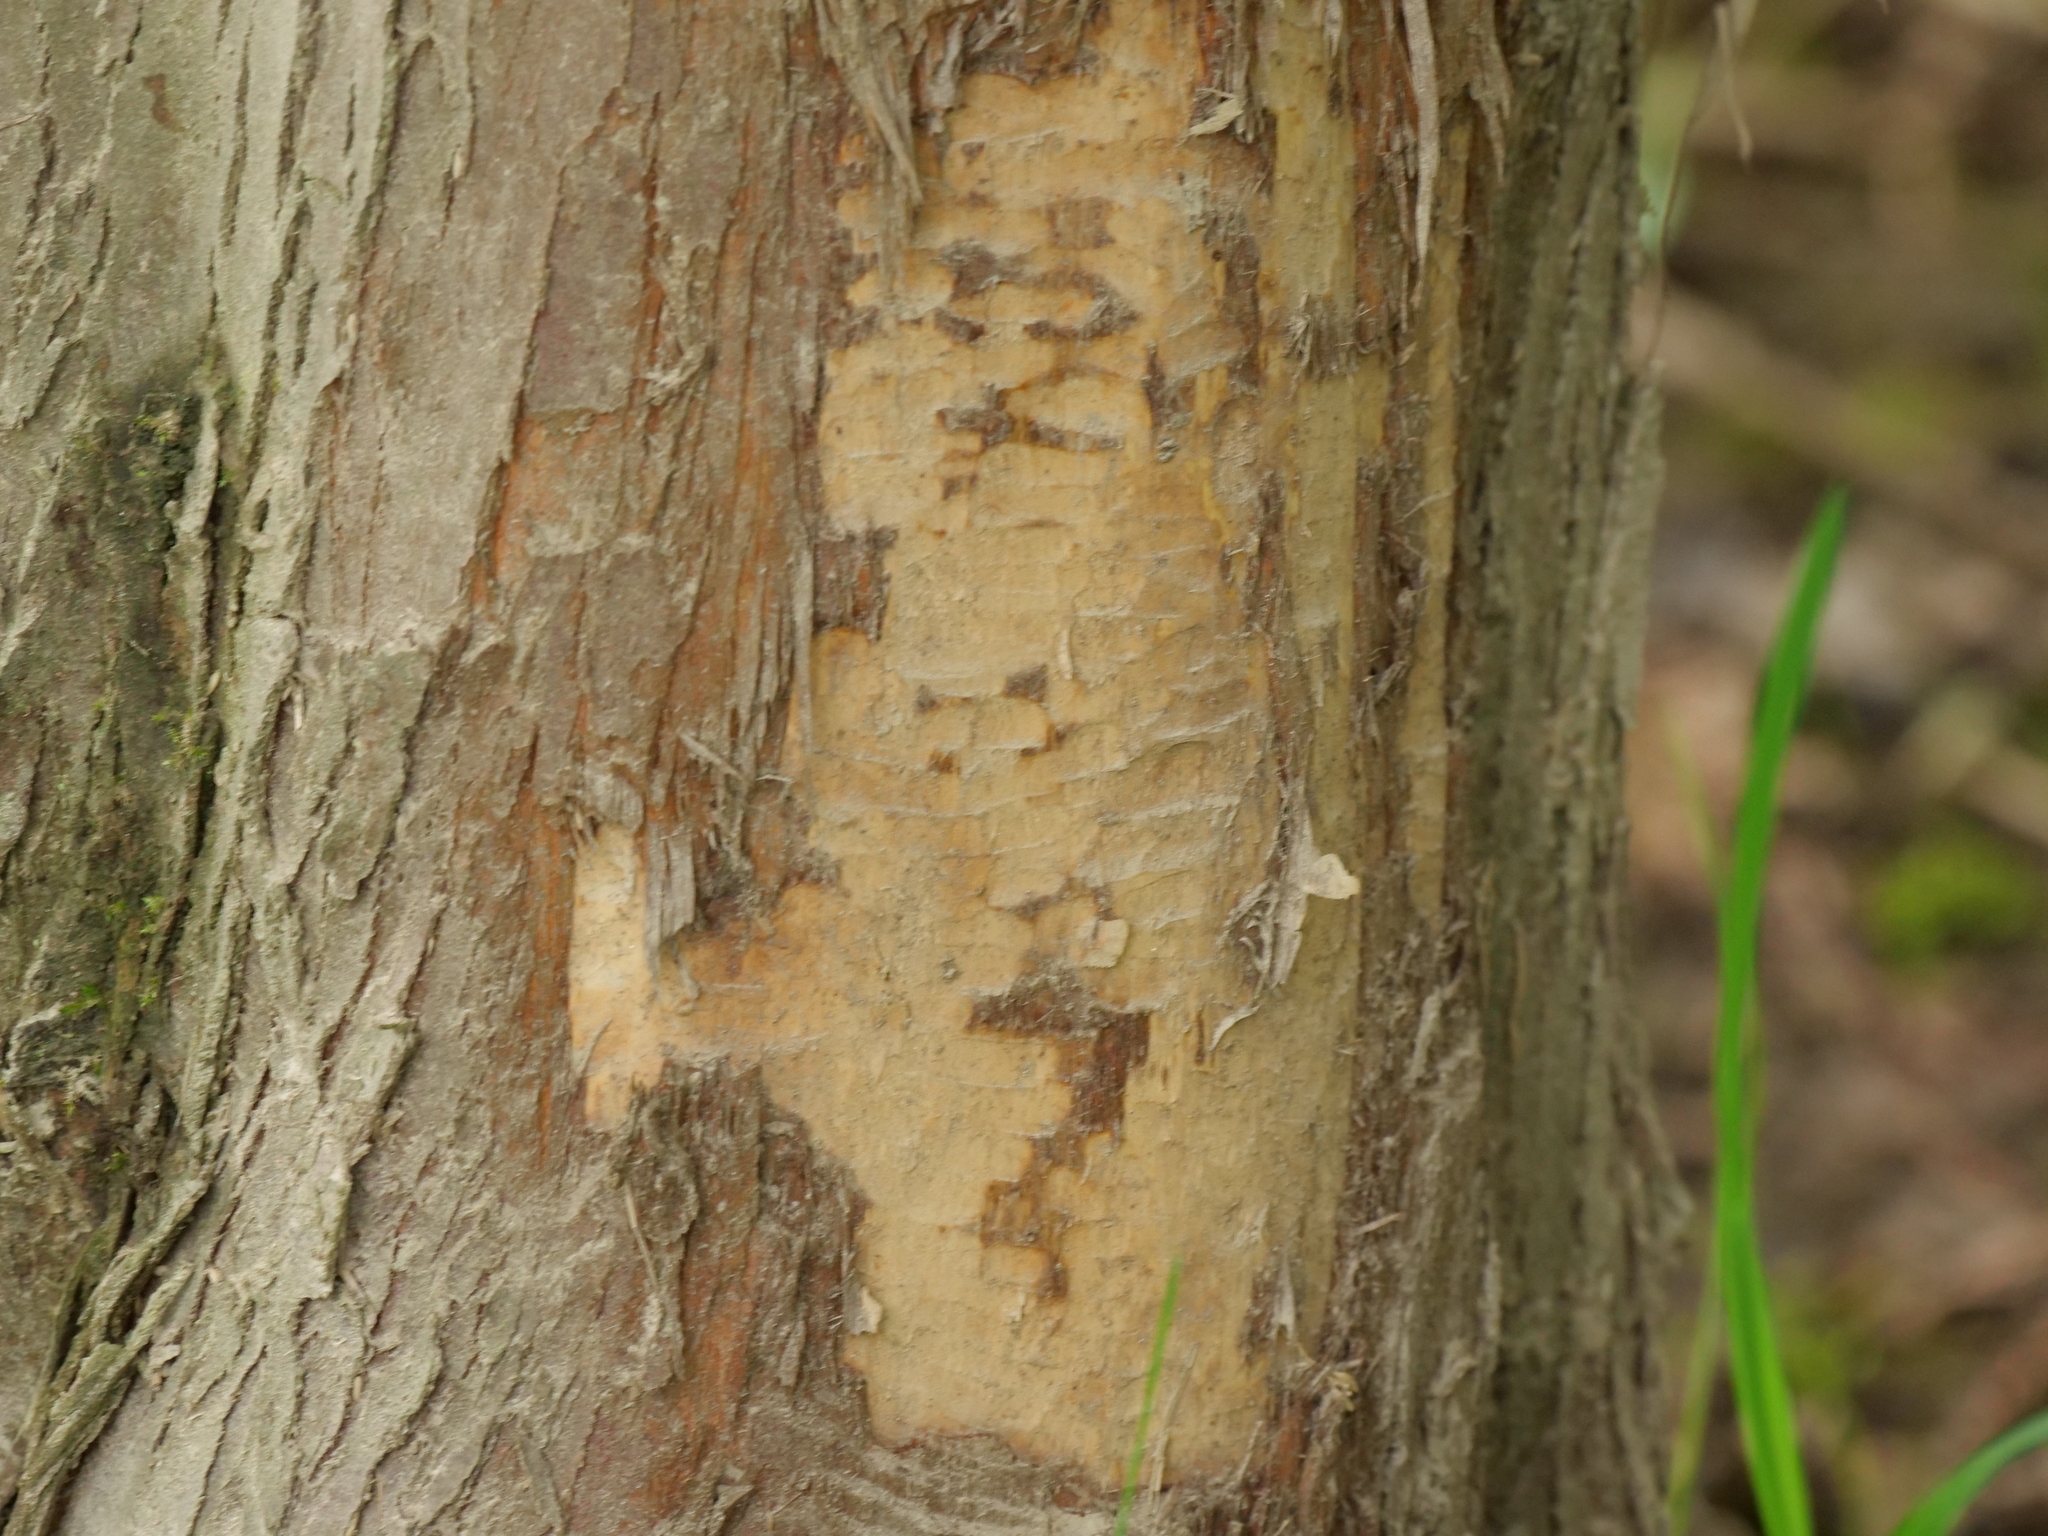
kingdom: Plantae
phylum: Tracheophyta
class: Pinopsida
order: Pinales
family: Cupressaceae
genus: Thuja
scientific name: Thuja plicata
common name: Western red-cedar
